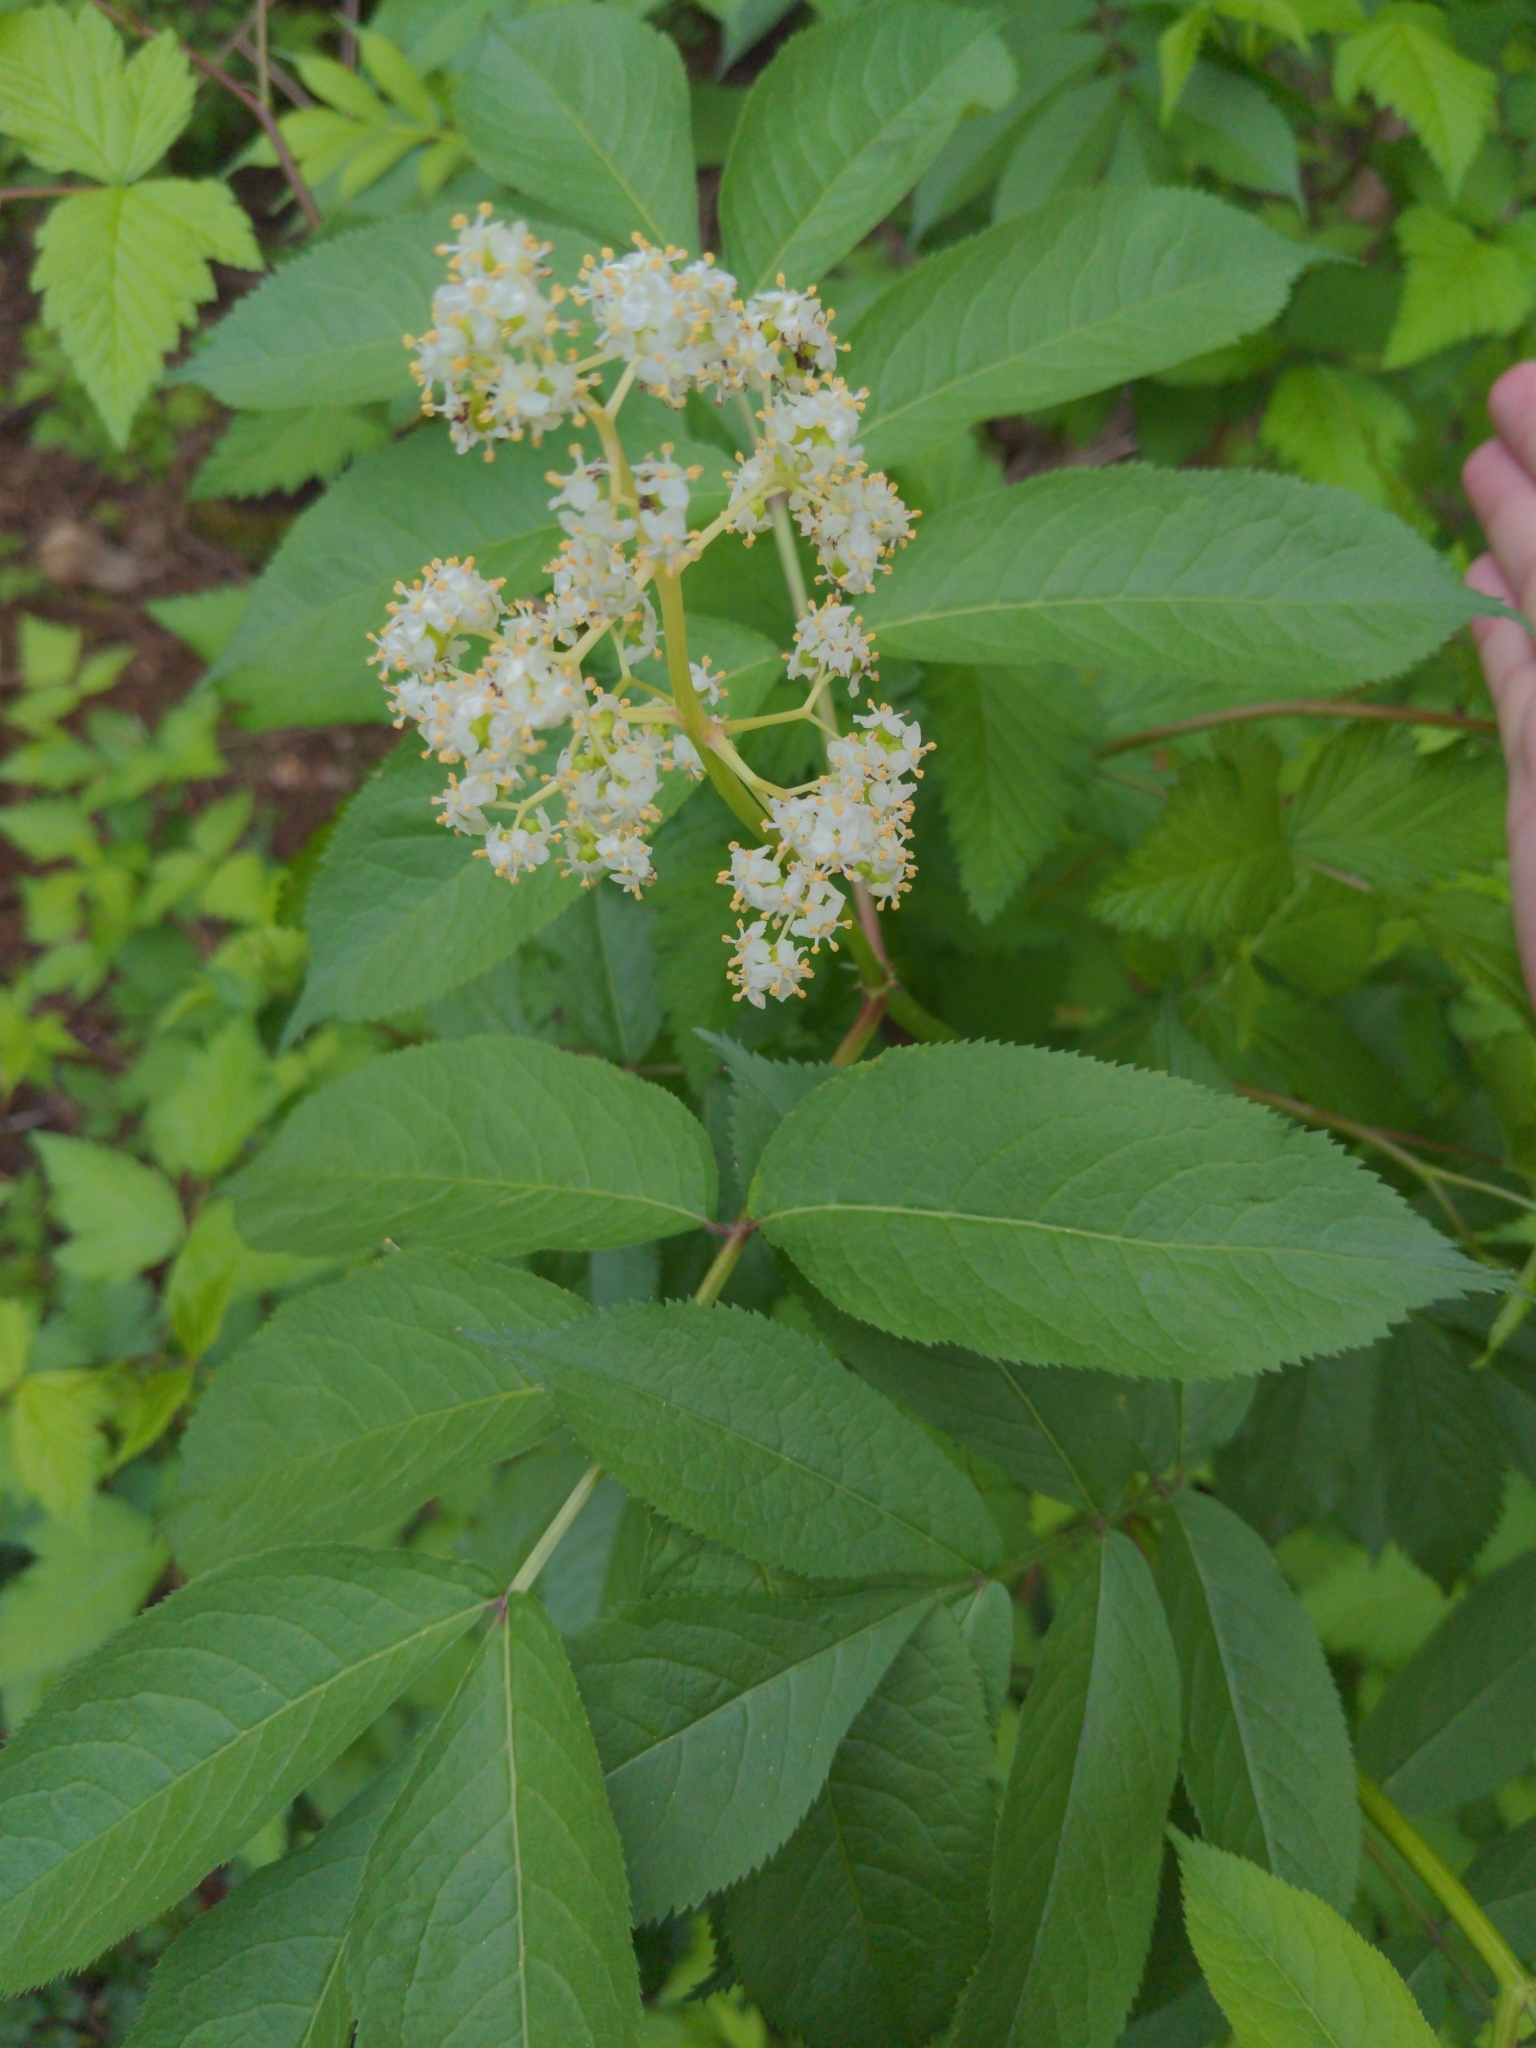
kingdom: Plantae
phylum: Tracheophyta
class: Magnoliopsida
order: Dipsacales
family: Viburnaceae
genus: Sambucus
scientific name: Sambucus racemosa
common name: Red-berried elder
